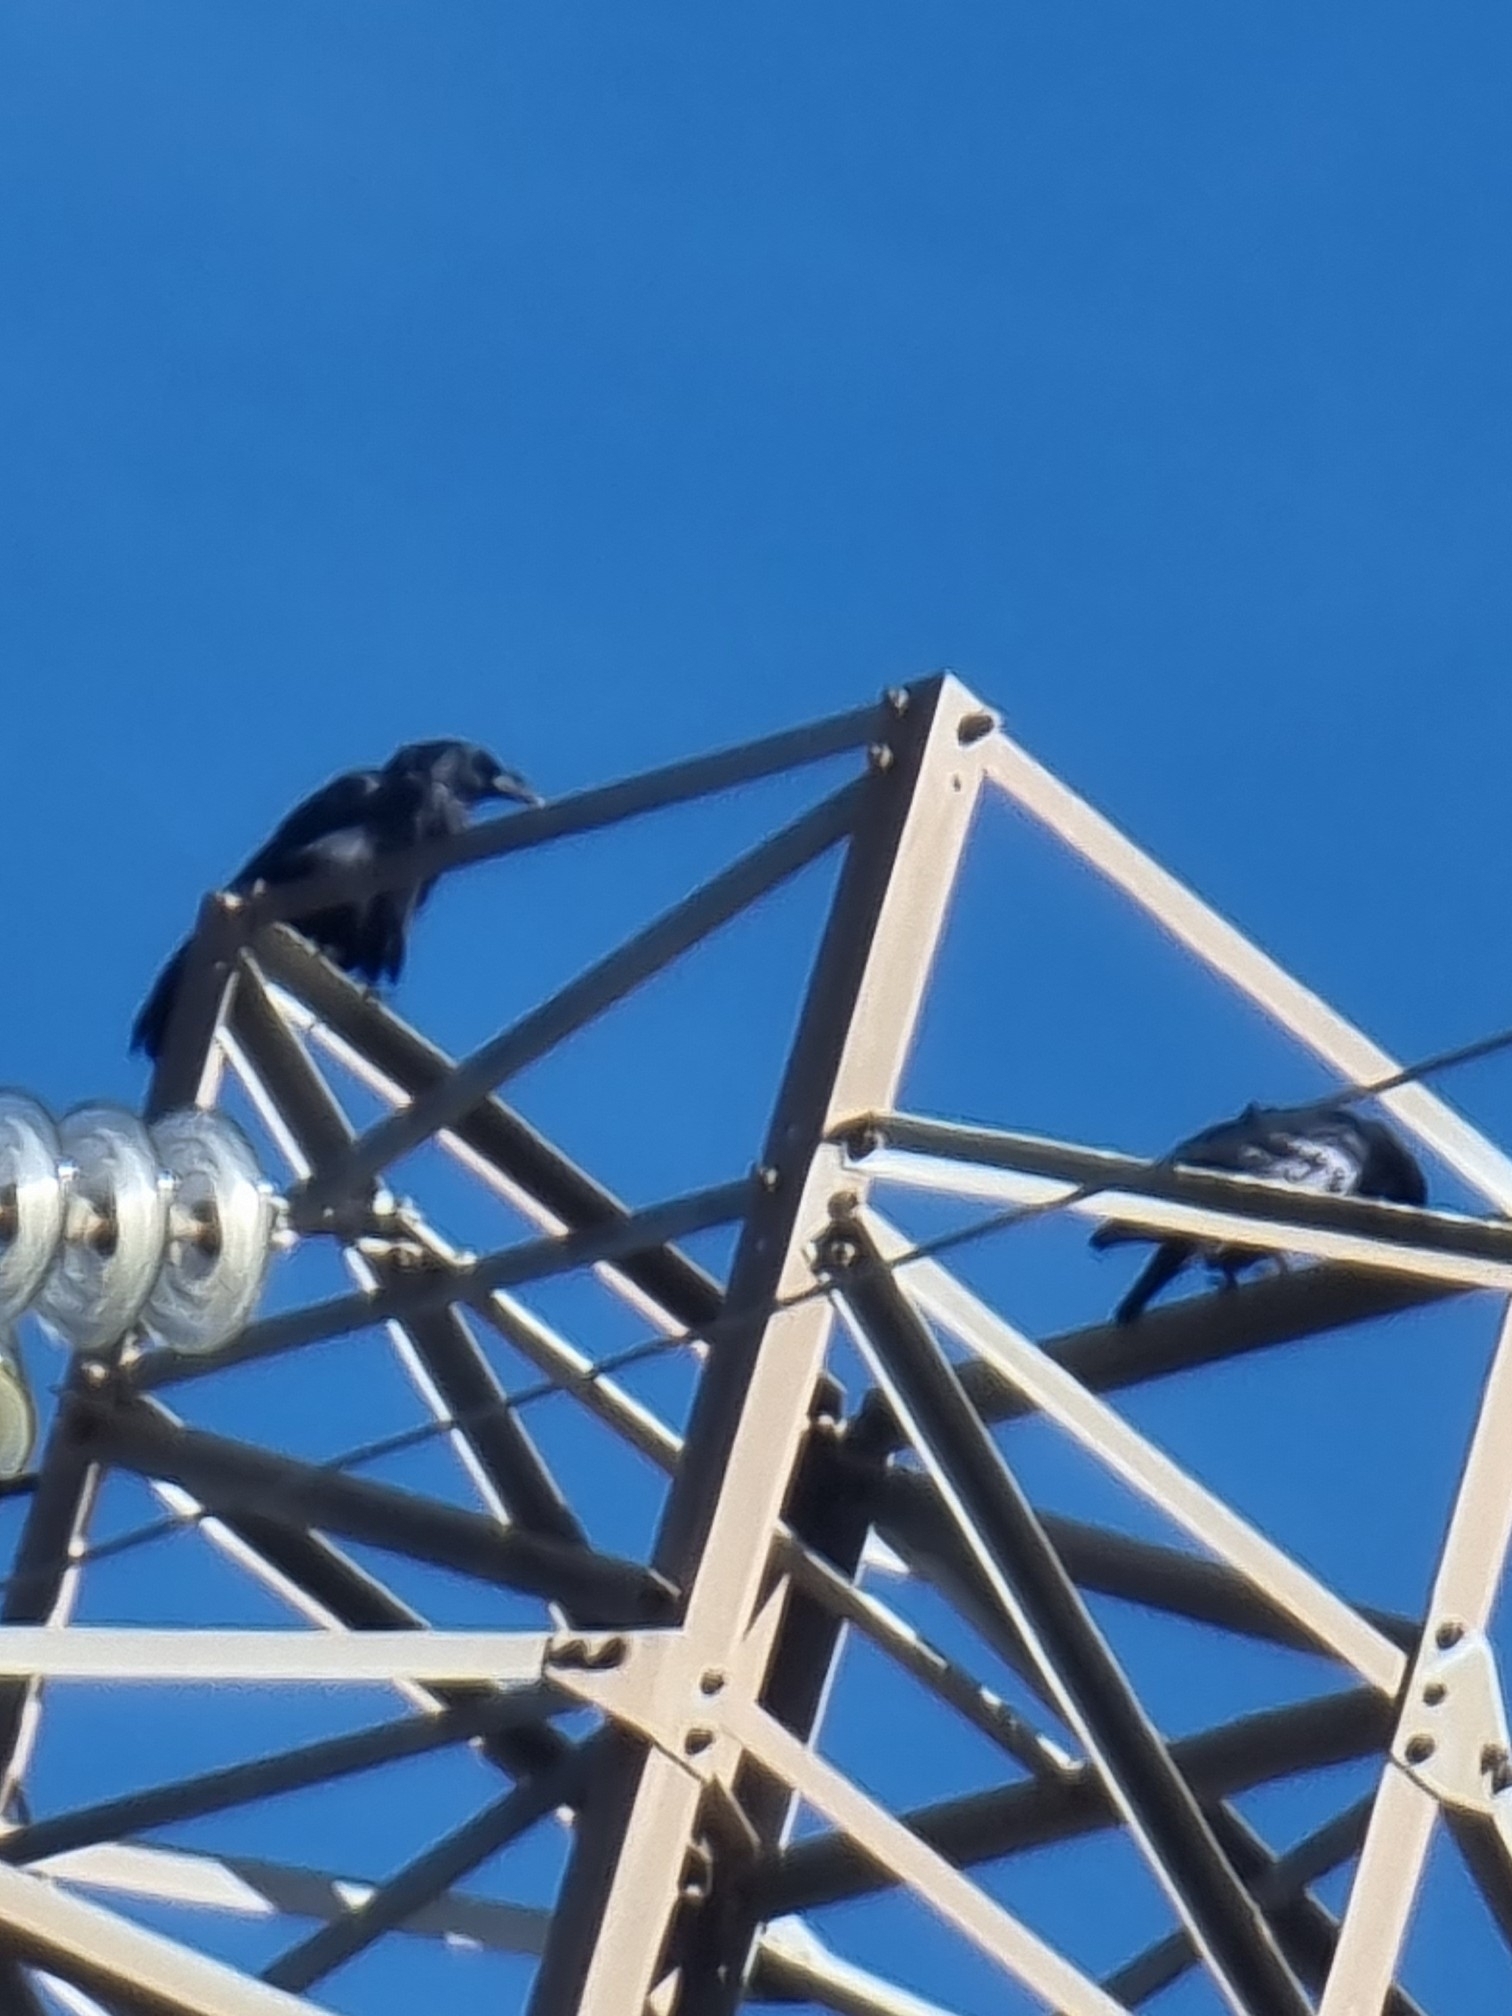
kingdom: Animalia
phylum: Chordata
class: Aves
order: Passeriformes
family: Corvidae
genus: Corvus
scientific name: Corvus corax
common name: Common raven
